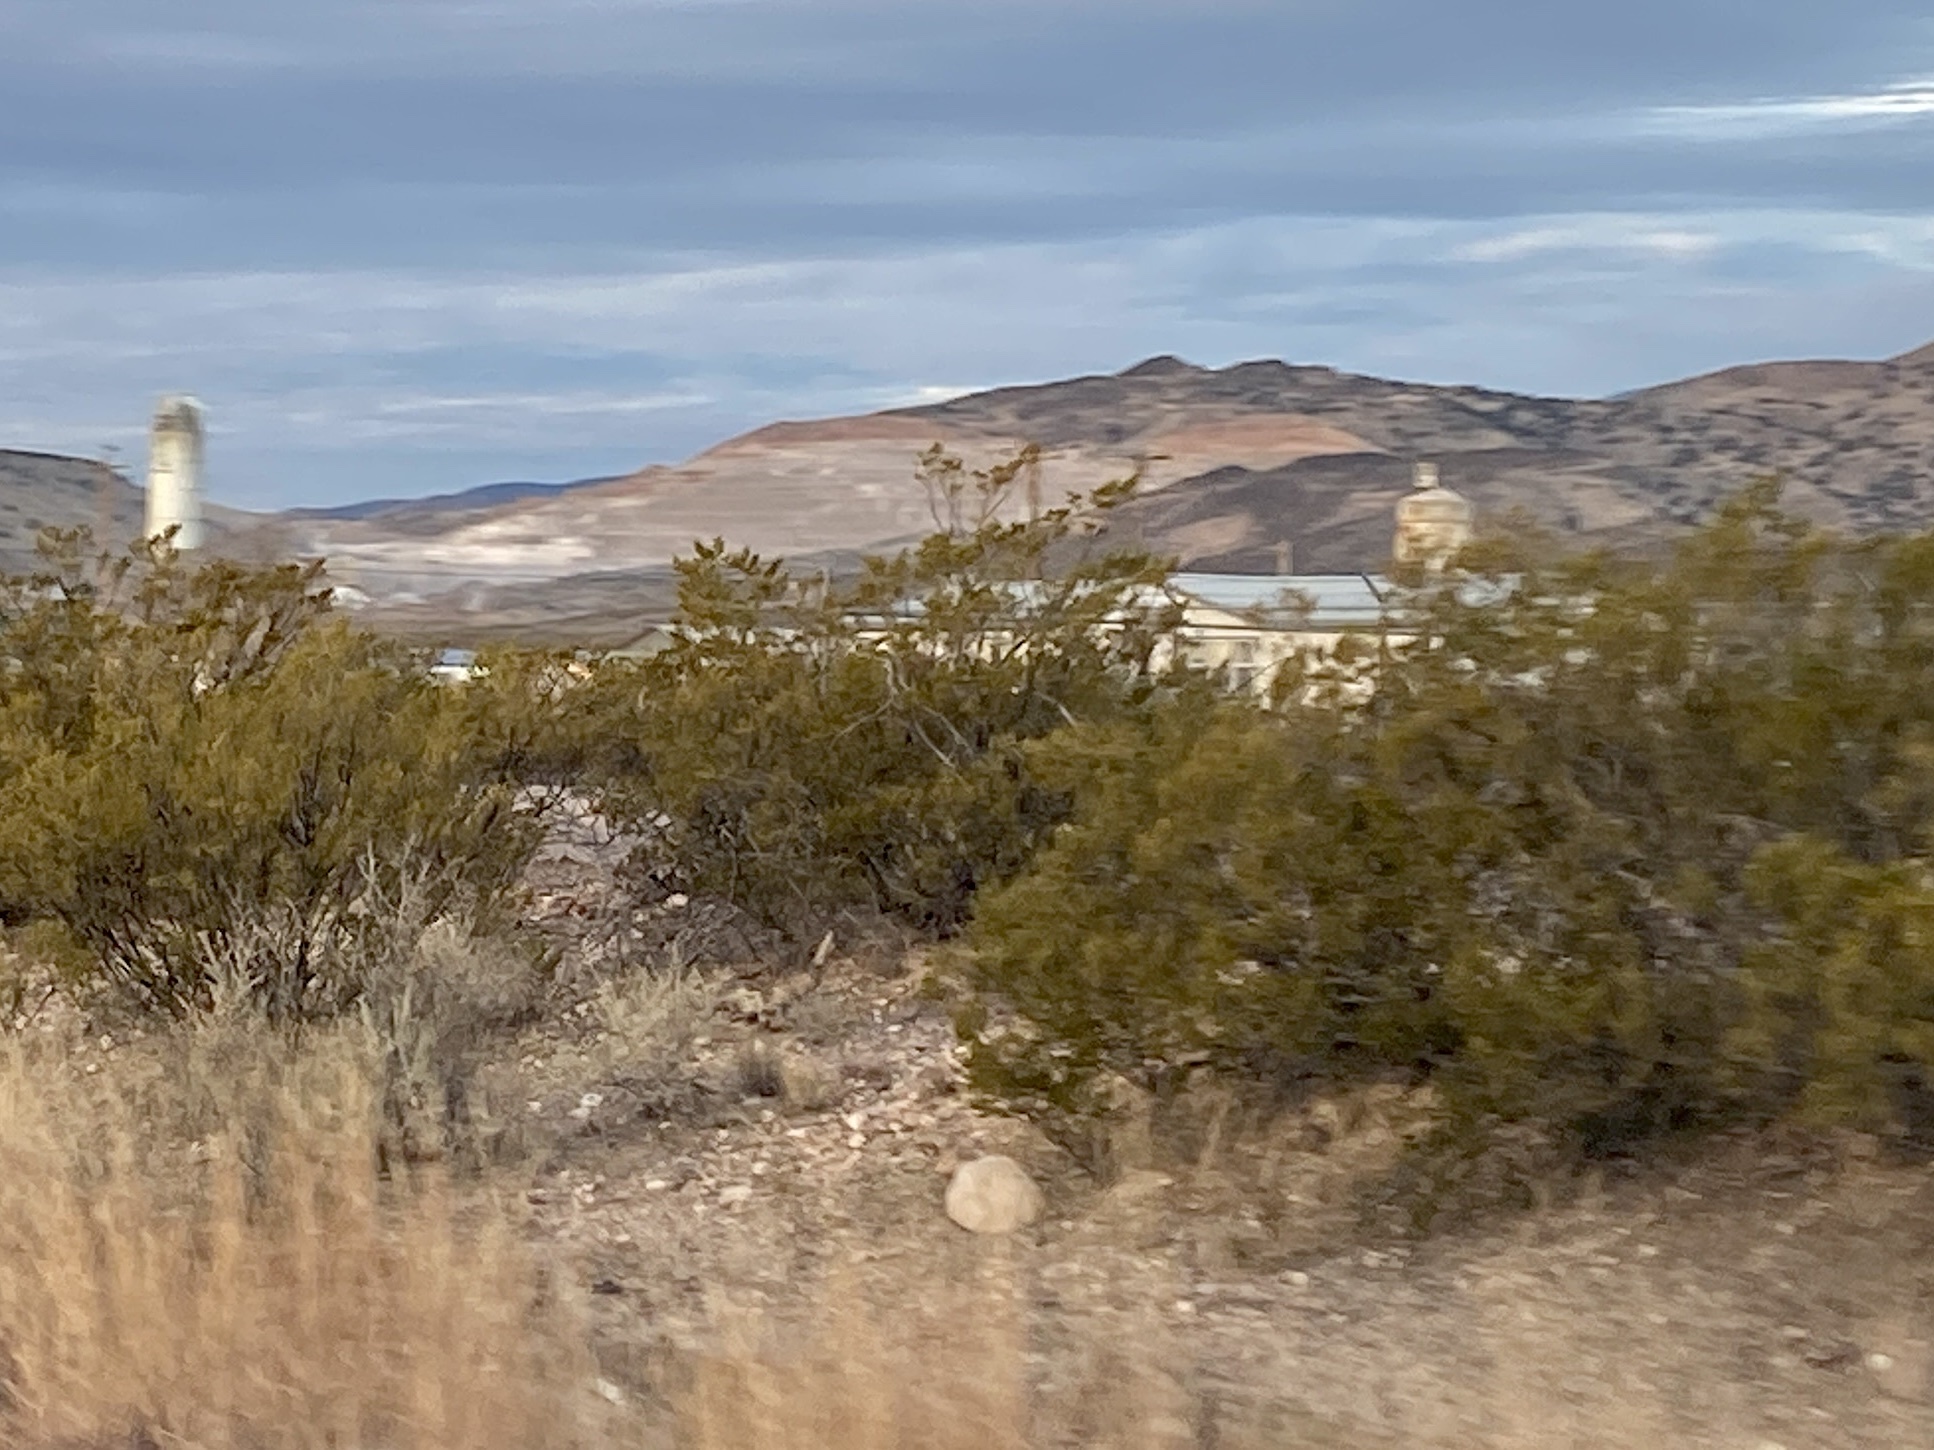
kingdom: Plantae
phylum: Tracheophyta
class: Magnoliopsida
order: Zygophyllales
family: Zygophyllaceae
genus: Larrea
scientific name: Larrea tridentata
